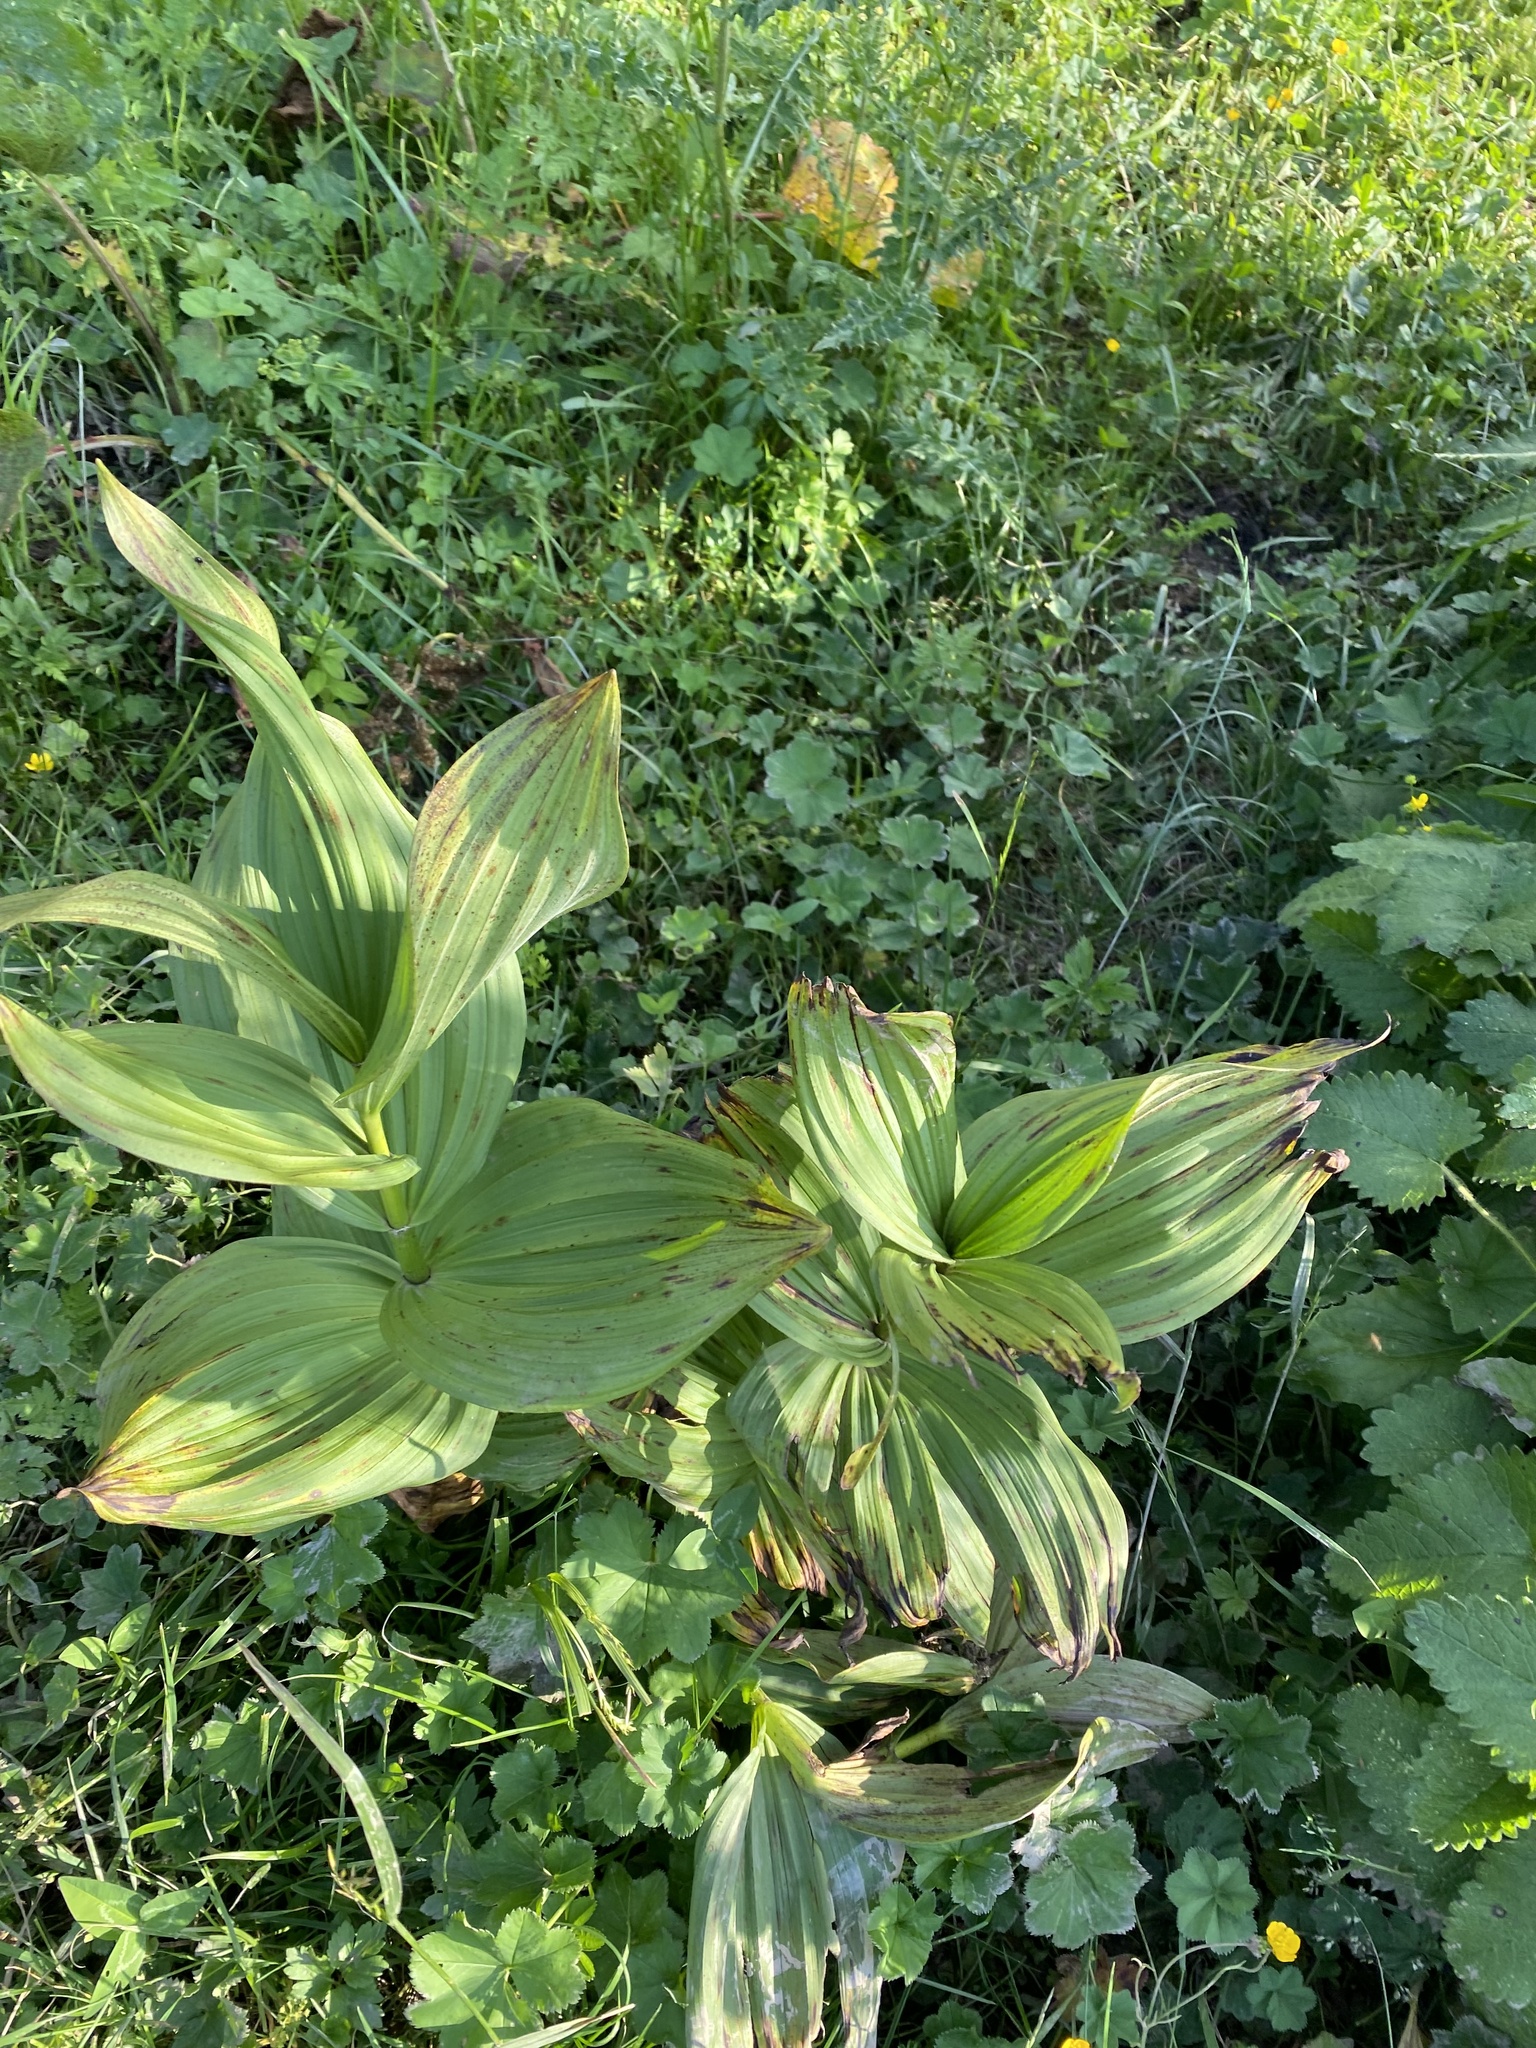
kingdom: Plantae
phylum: Tracheophyta
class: Liliopsida
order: Liliales
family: Melanthiaceae
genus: Veratrum
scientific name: Veratrum lobelianum
